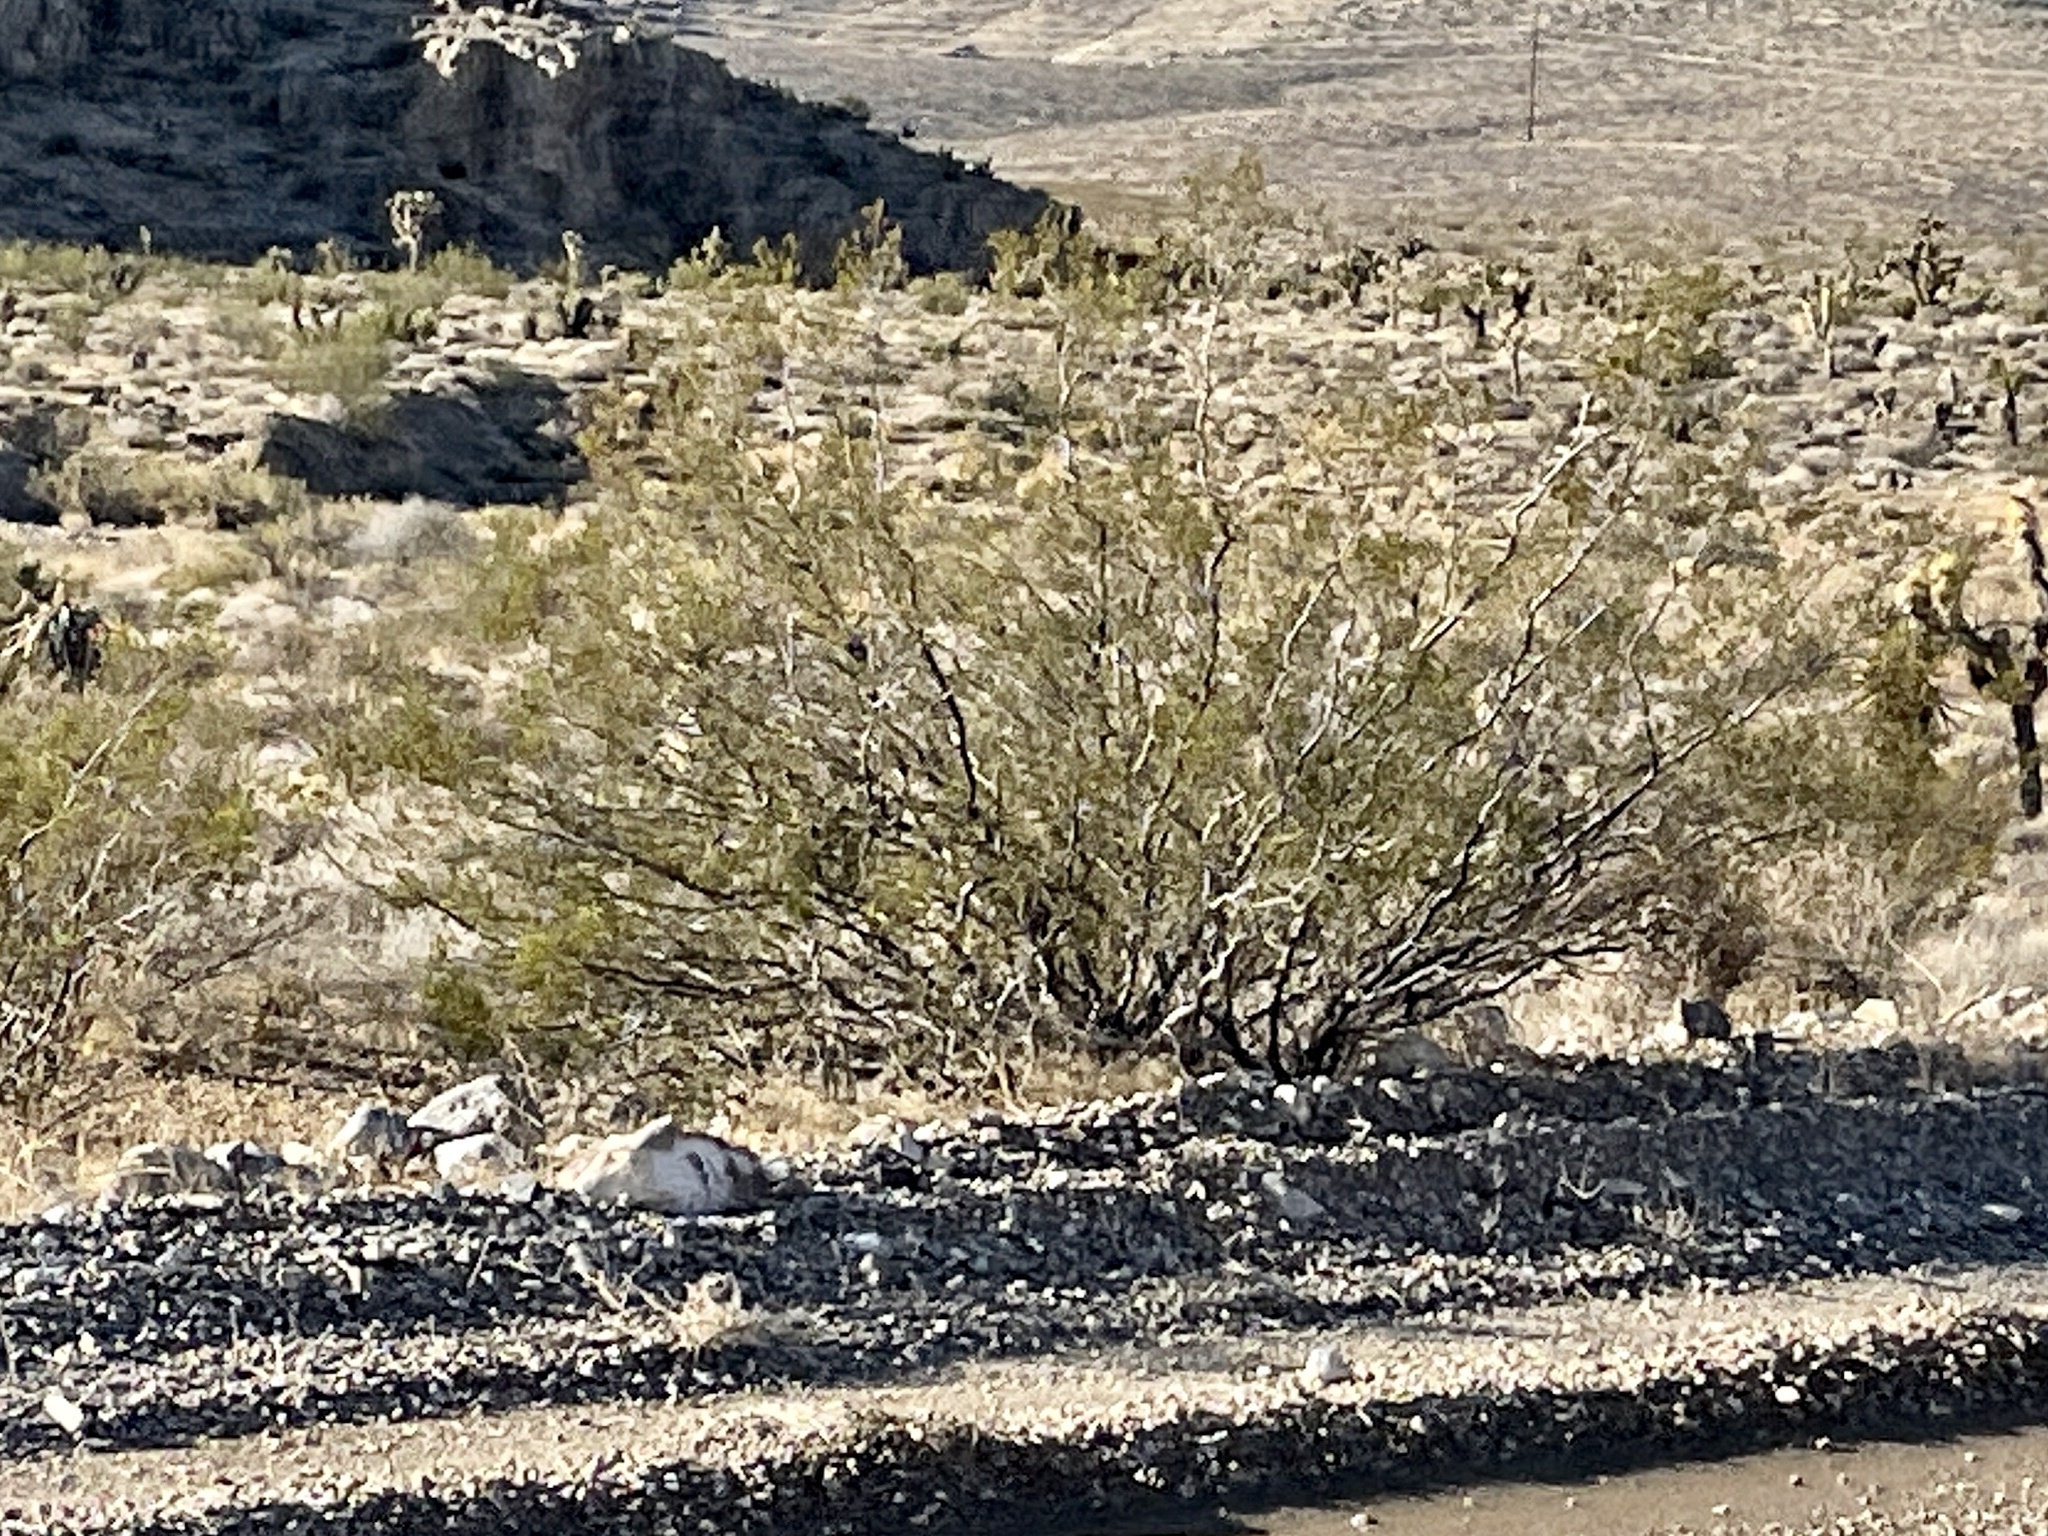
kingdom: Plantae
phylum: Tracheophyta
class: Magnoliopsida
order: Zygophyllales
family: Zygophyllaceae
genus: Larrea
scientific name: Larrea tridentata
